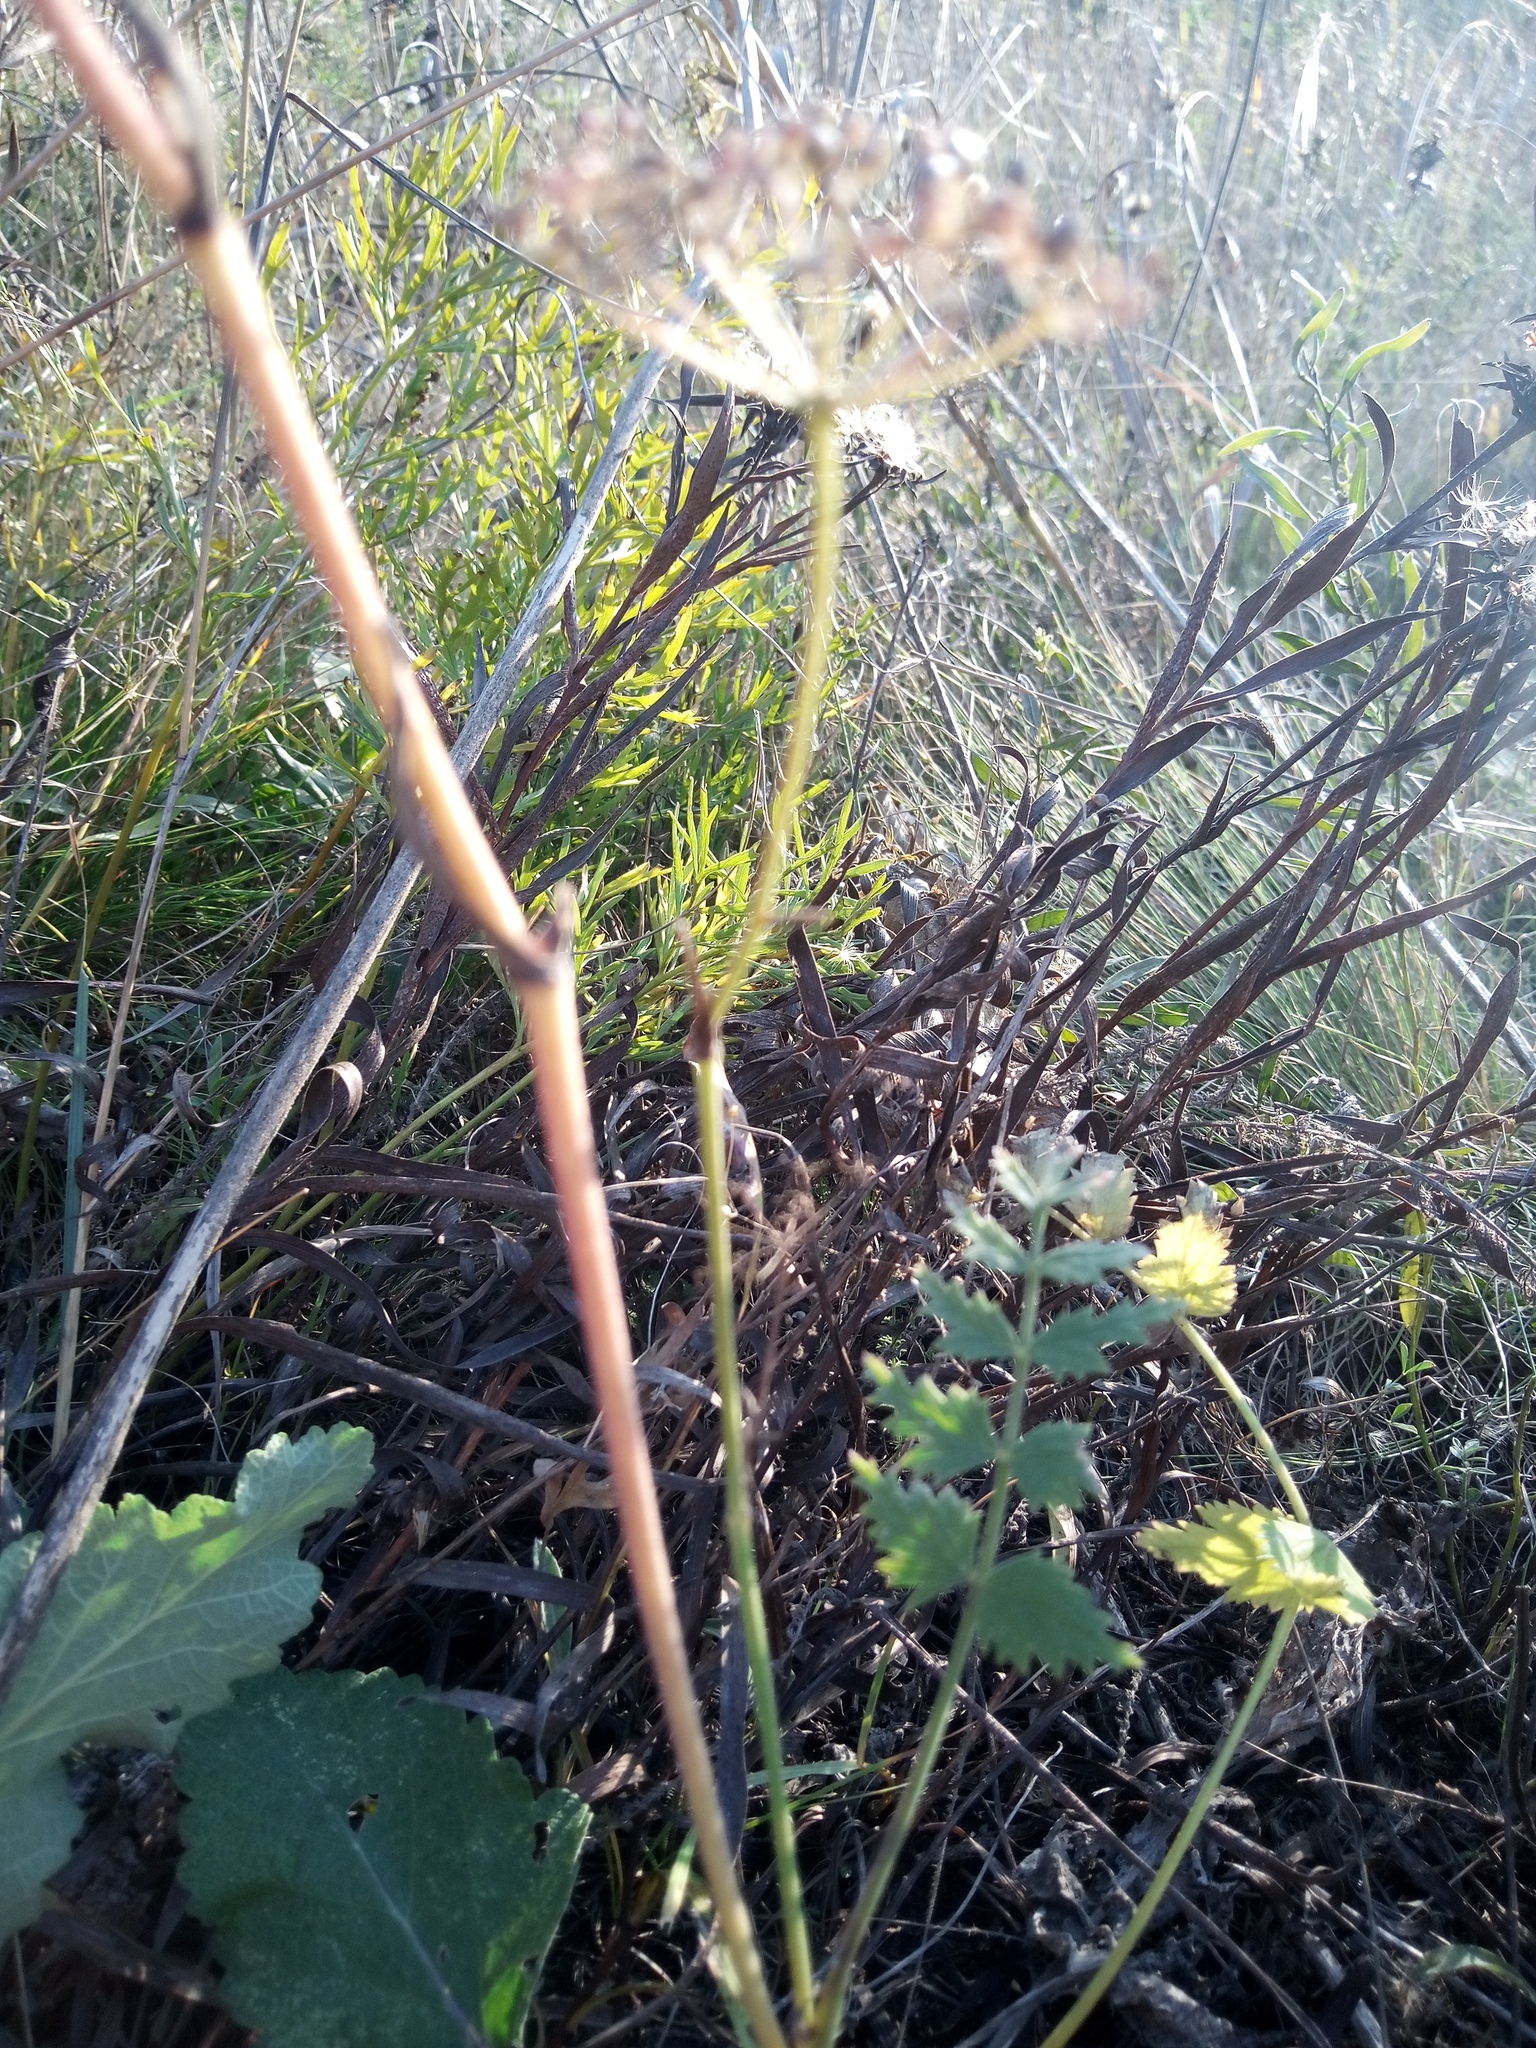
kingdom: Plantae
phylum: Tracheophyta
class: Magnoliopsida
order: Apiales
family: Apiaceae
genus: Pimpinella
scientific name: Pimpinella saxifraga
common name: Burnet-saxifrage
